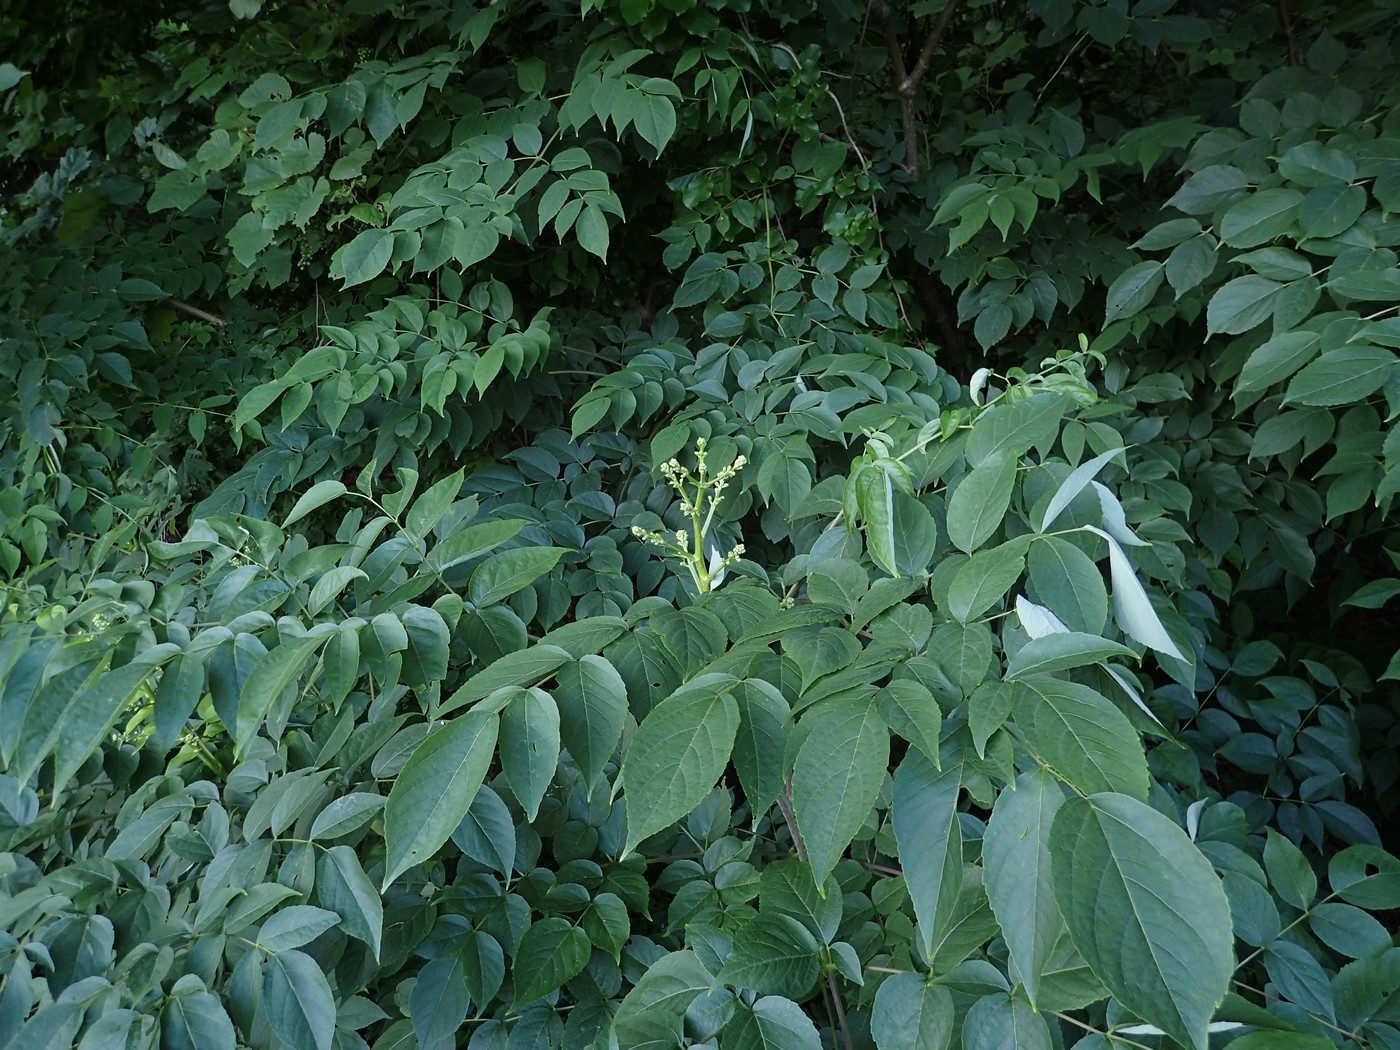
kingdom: Plantae
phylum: Tracheophyta
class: Magnoliopsida
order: Apiales
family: Araliaceae
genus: Aralia
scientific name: Aralia spinosa
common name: Hercules'-club
